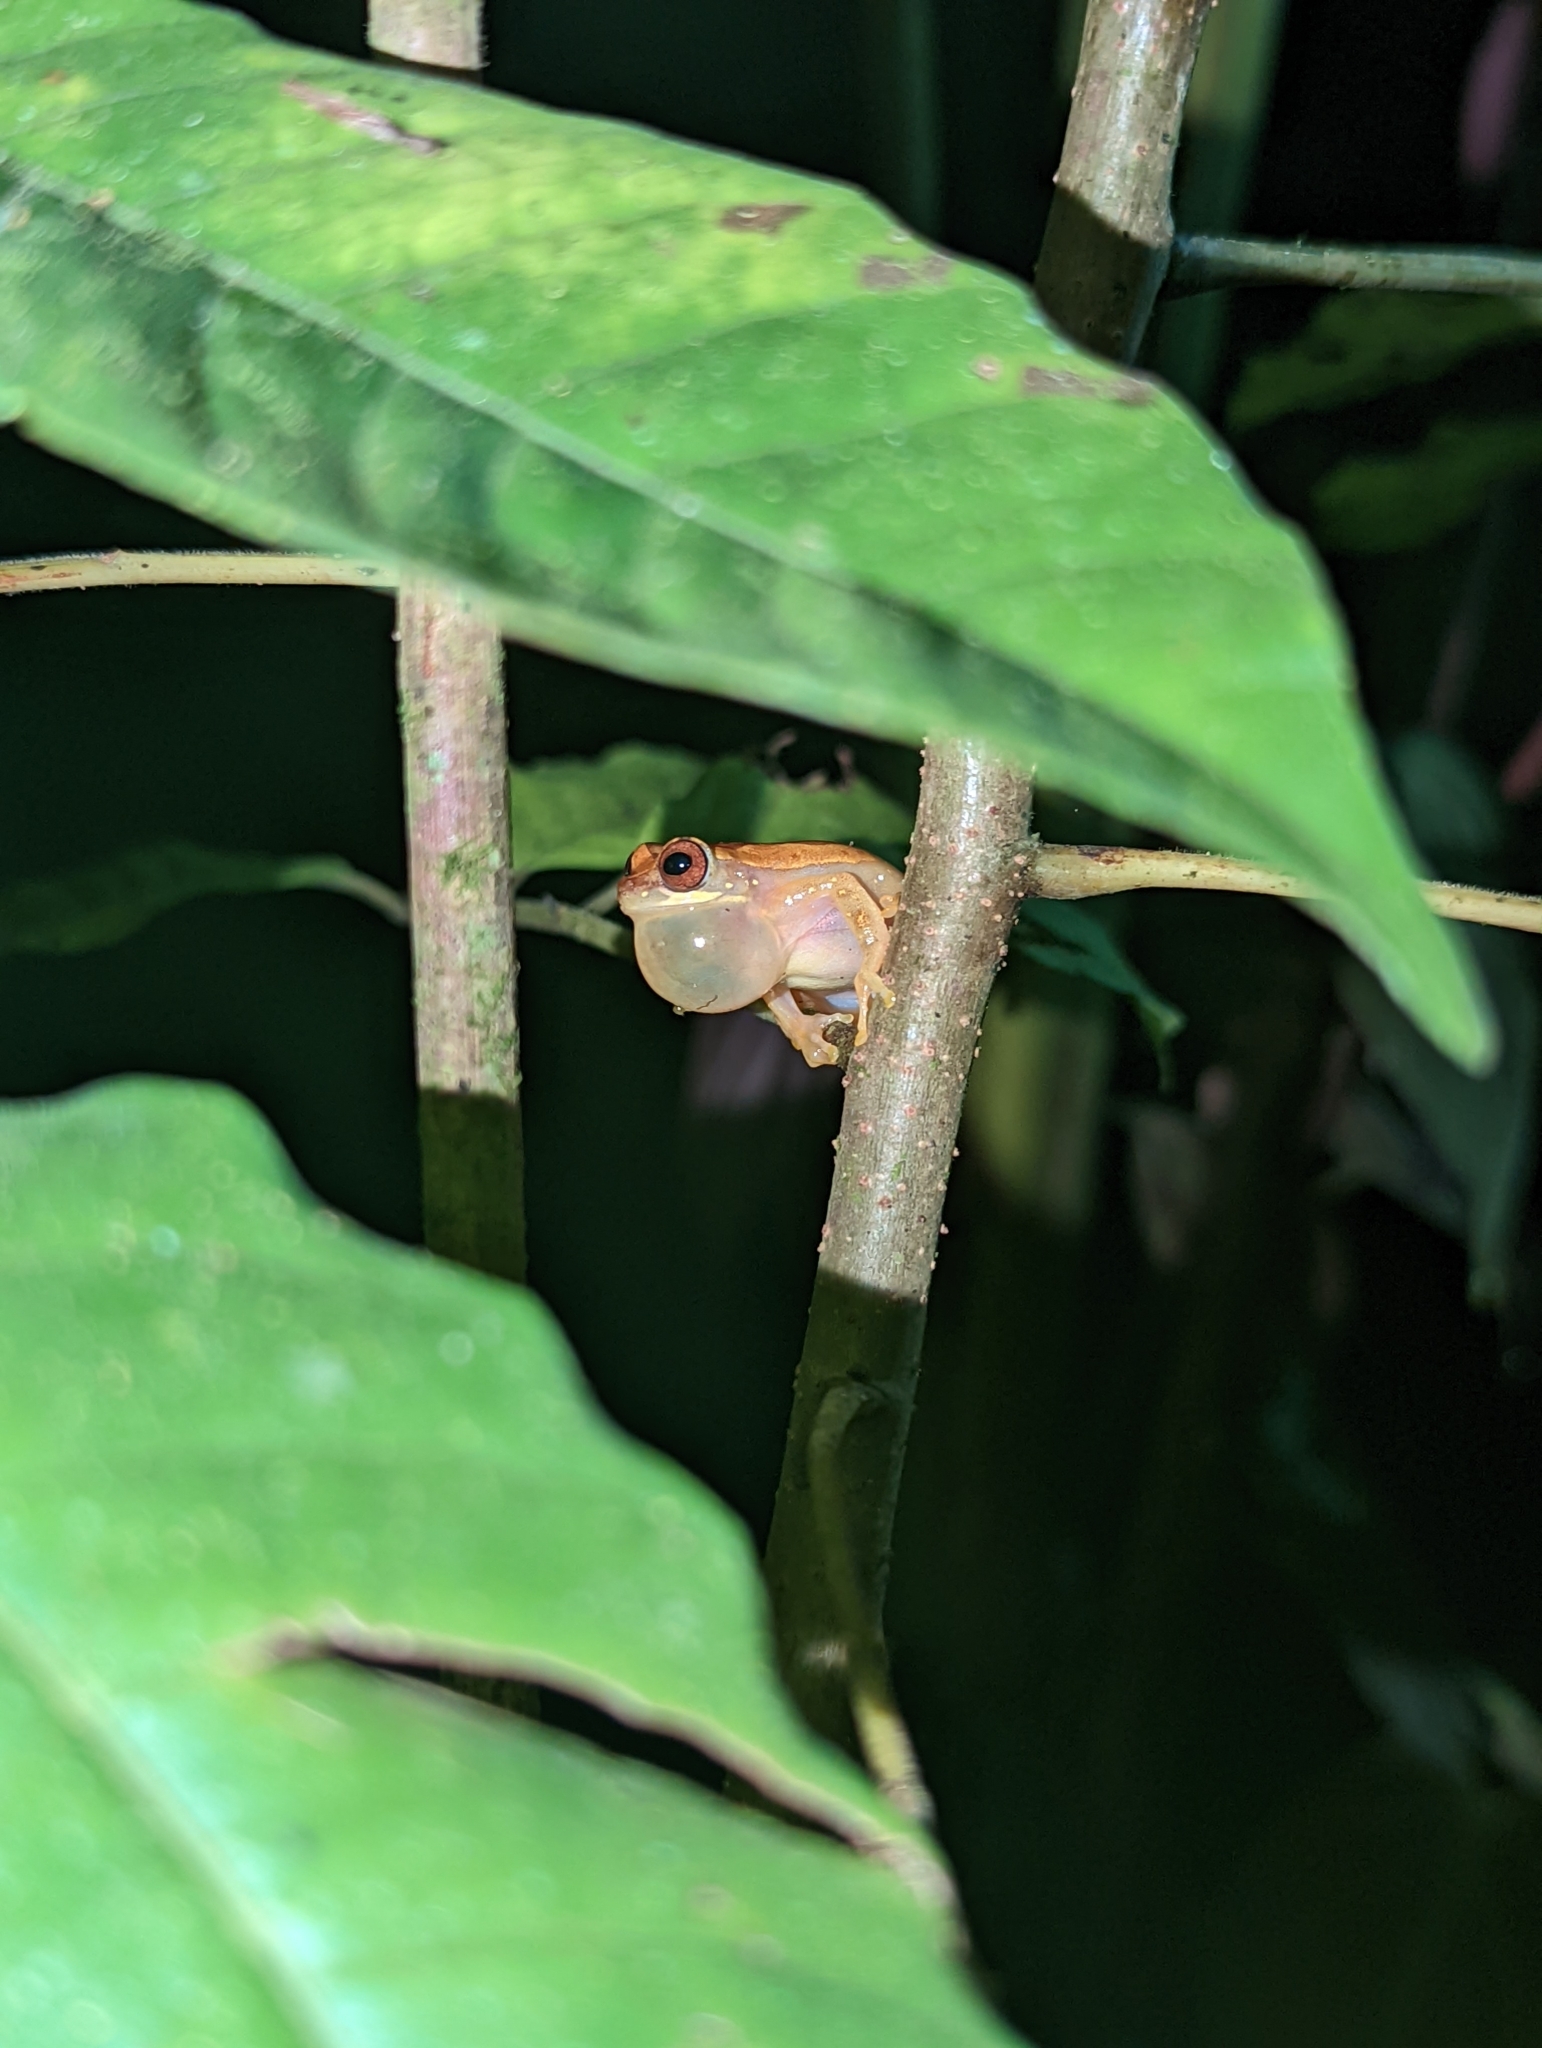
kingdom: Animalia
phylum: Chordata
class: Amphibia
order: Anura
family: Hylidae
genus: Dendropsophus
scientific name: Dendropsophus ebraccatus
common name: Hourglass treefrog
